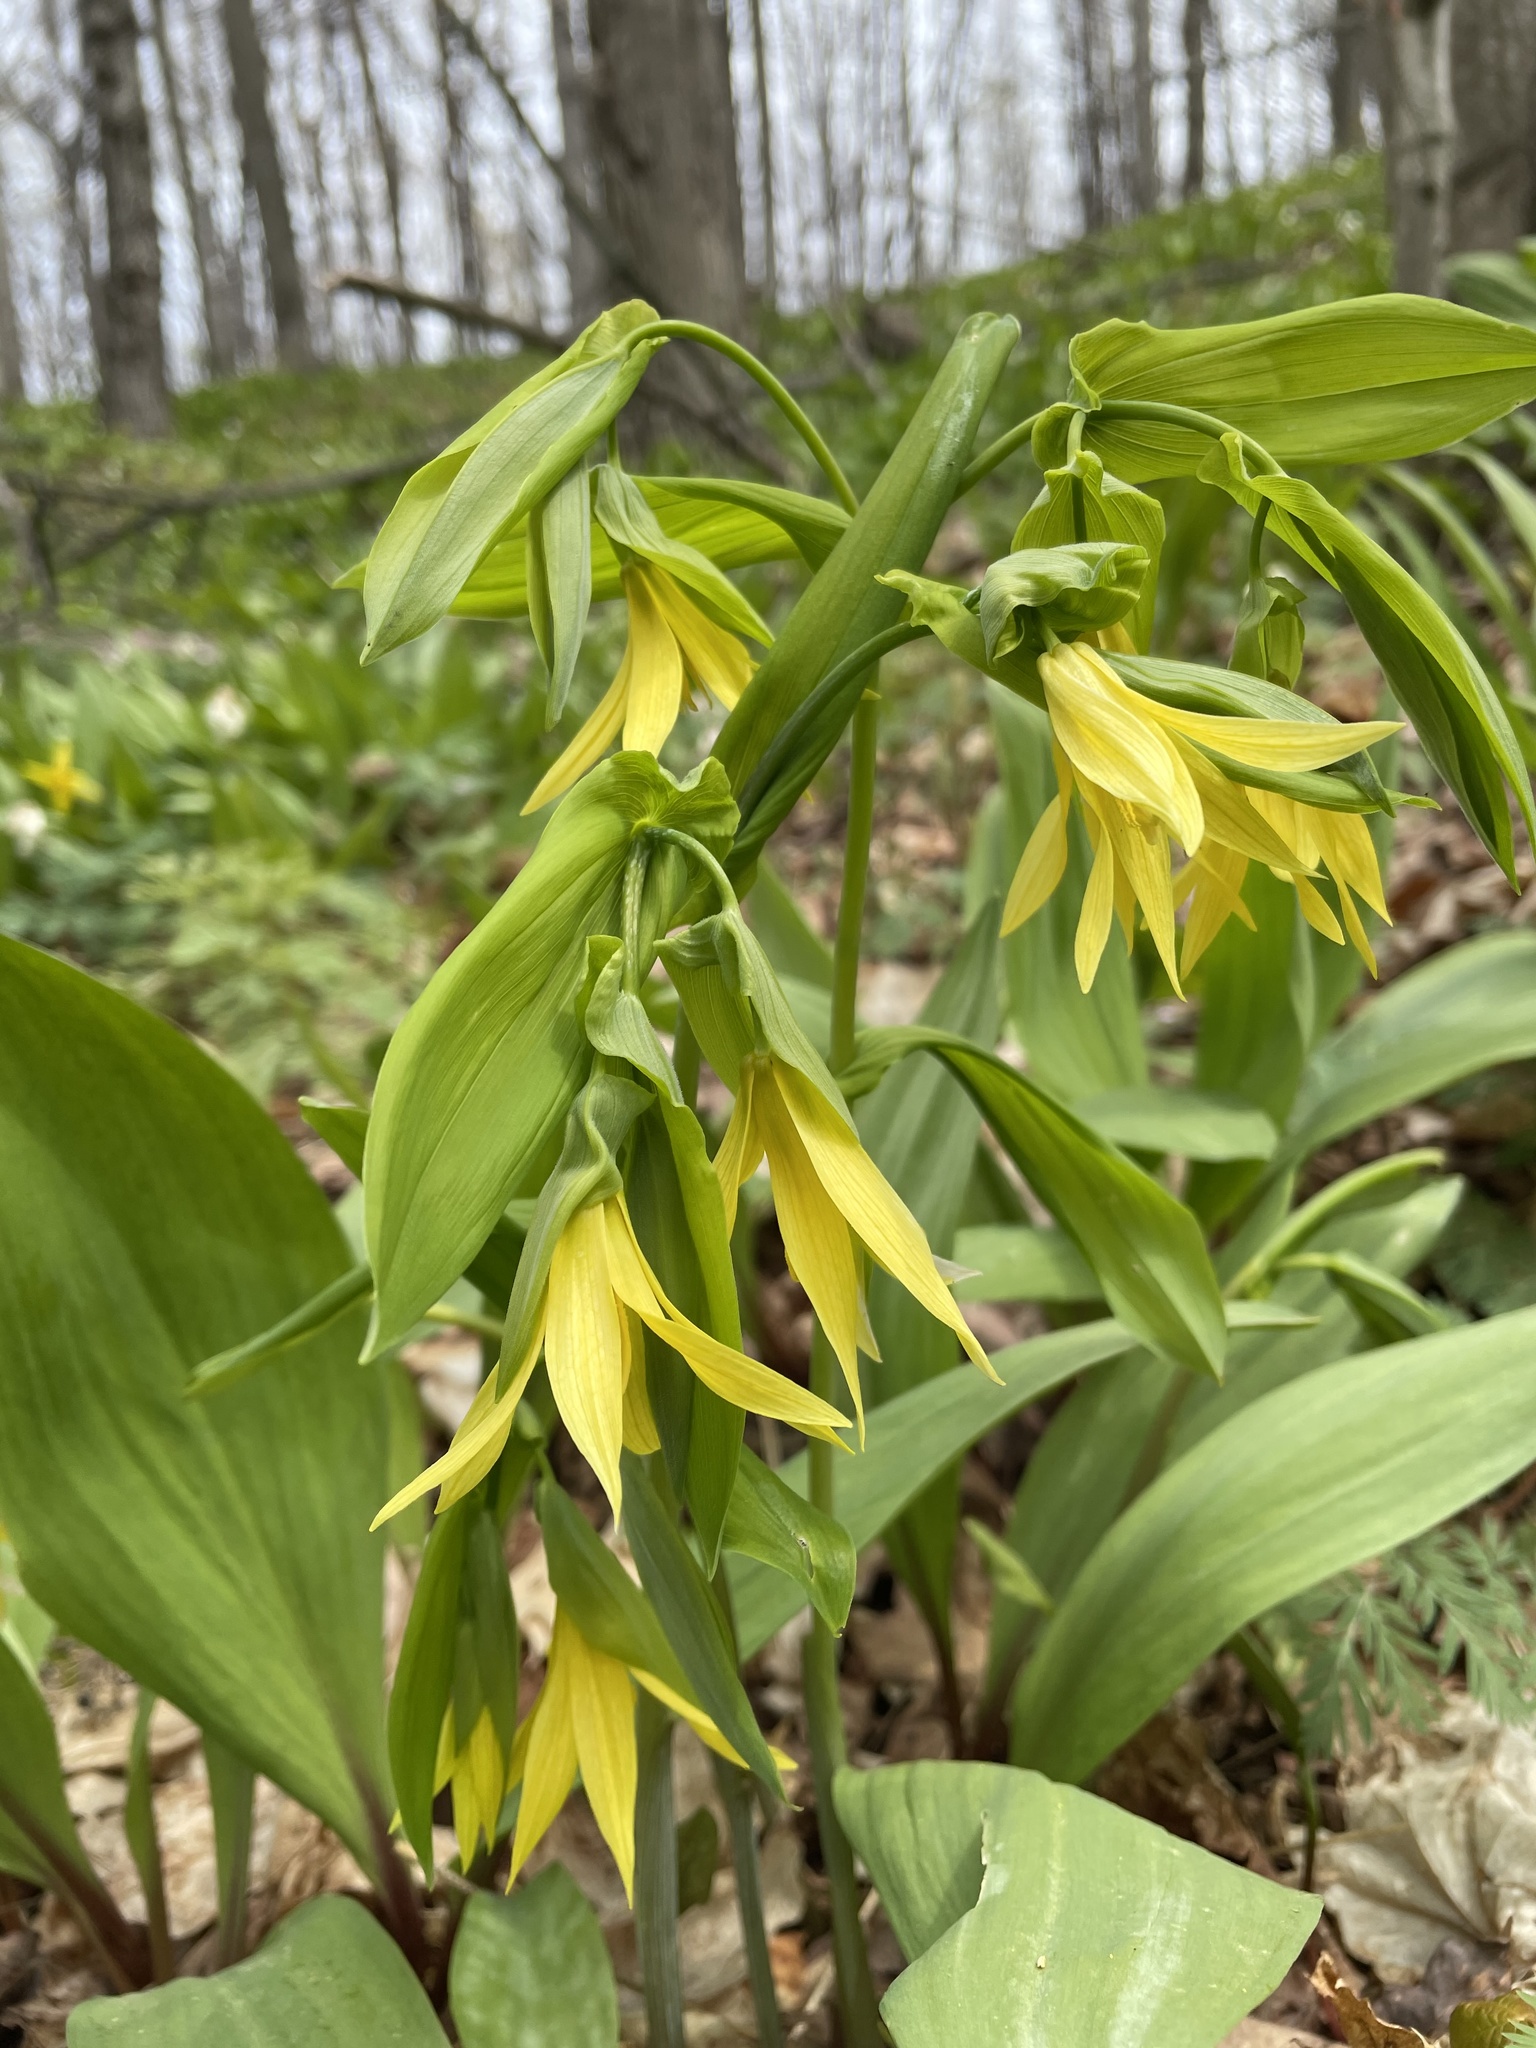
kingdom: Plantae
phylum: Tracheophyta
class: Liliopsida
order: Liliales
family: Colchicaceae
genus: Uvularia
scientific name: Uvularia grandiflora
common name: Bellwort
